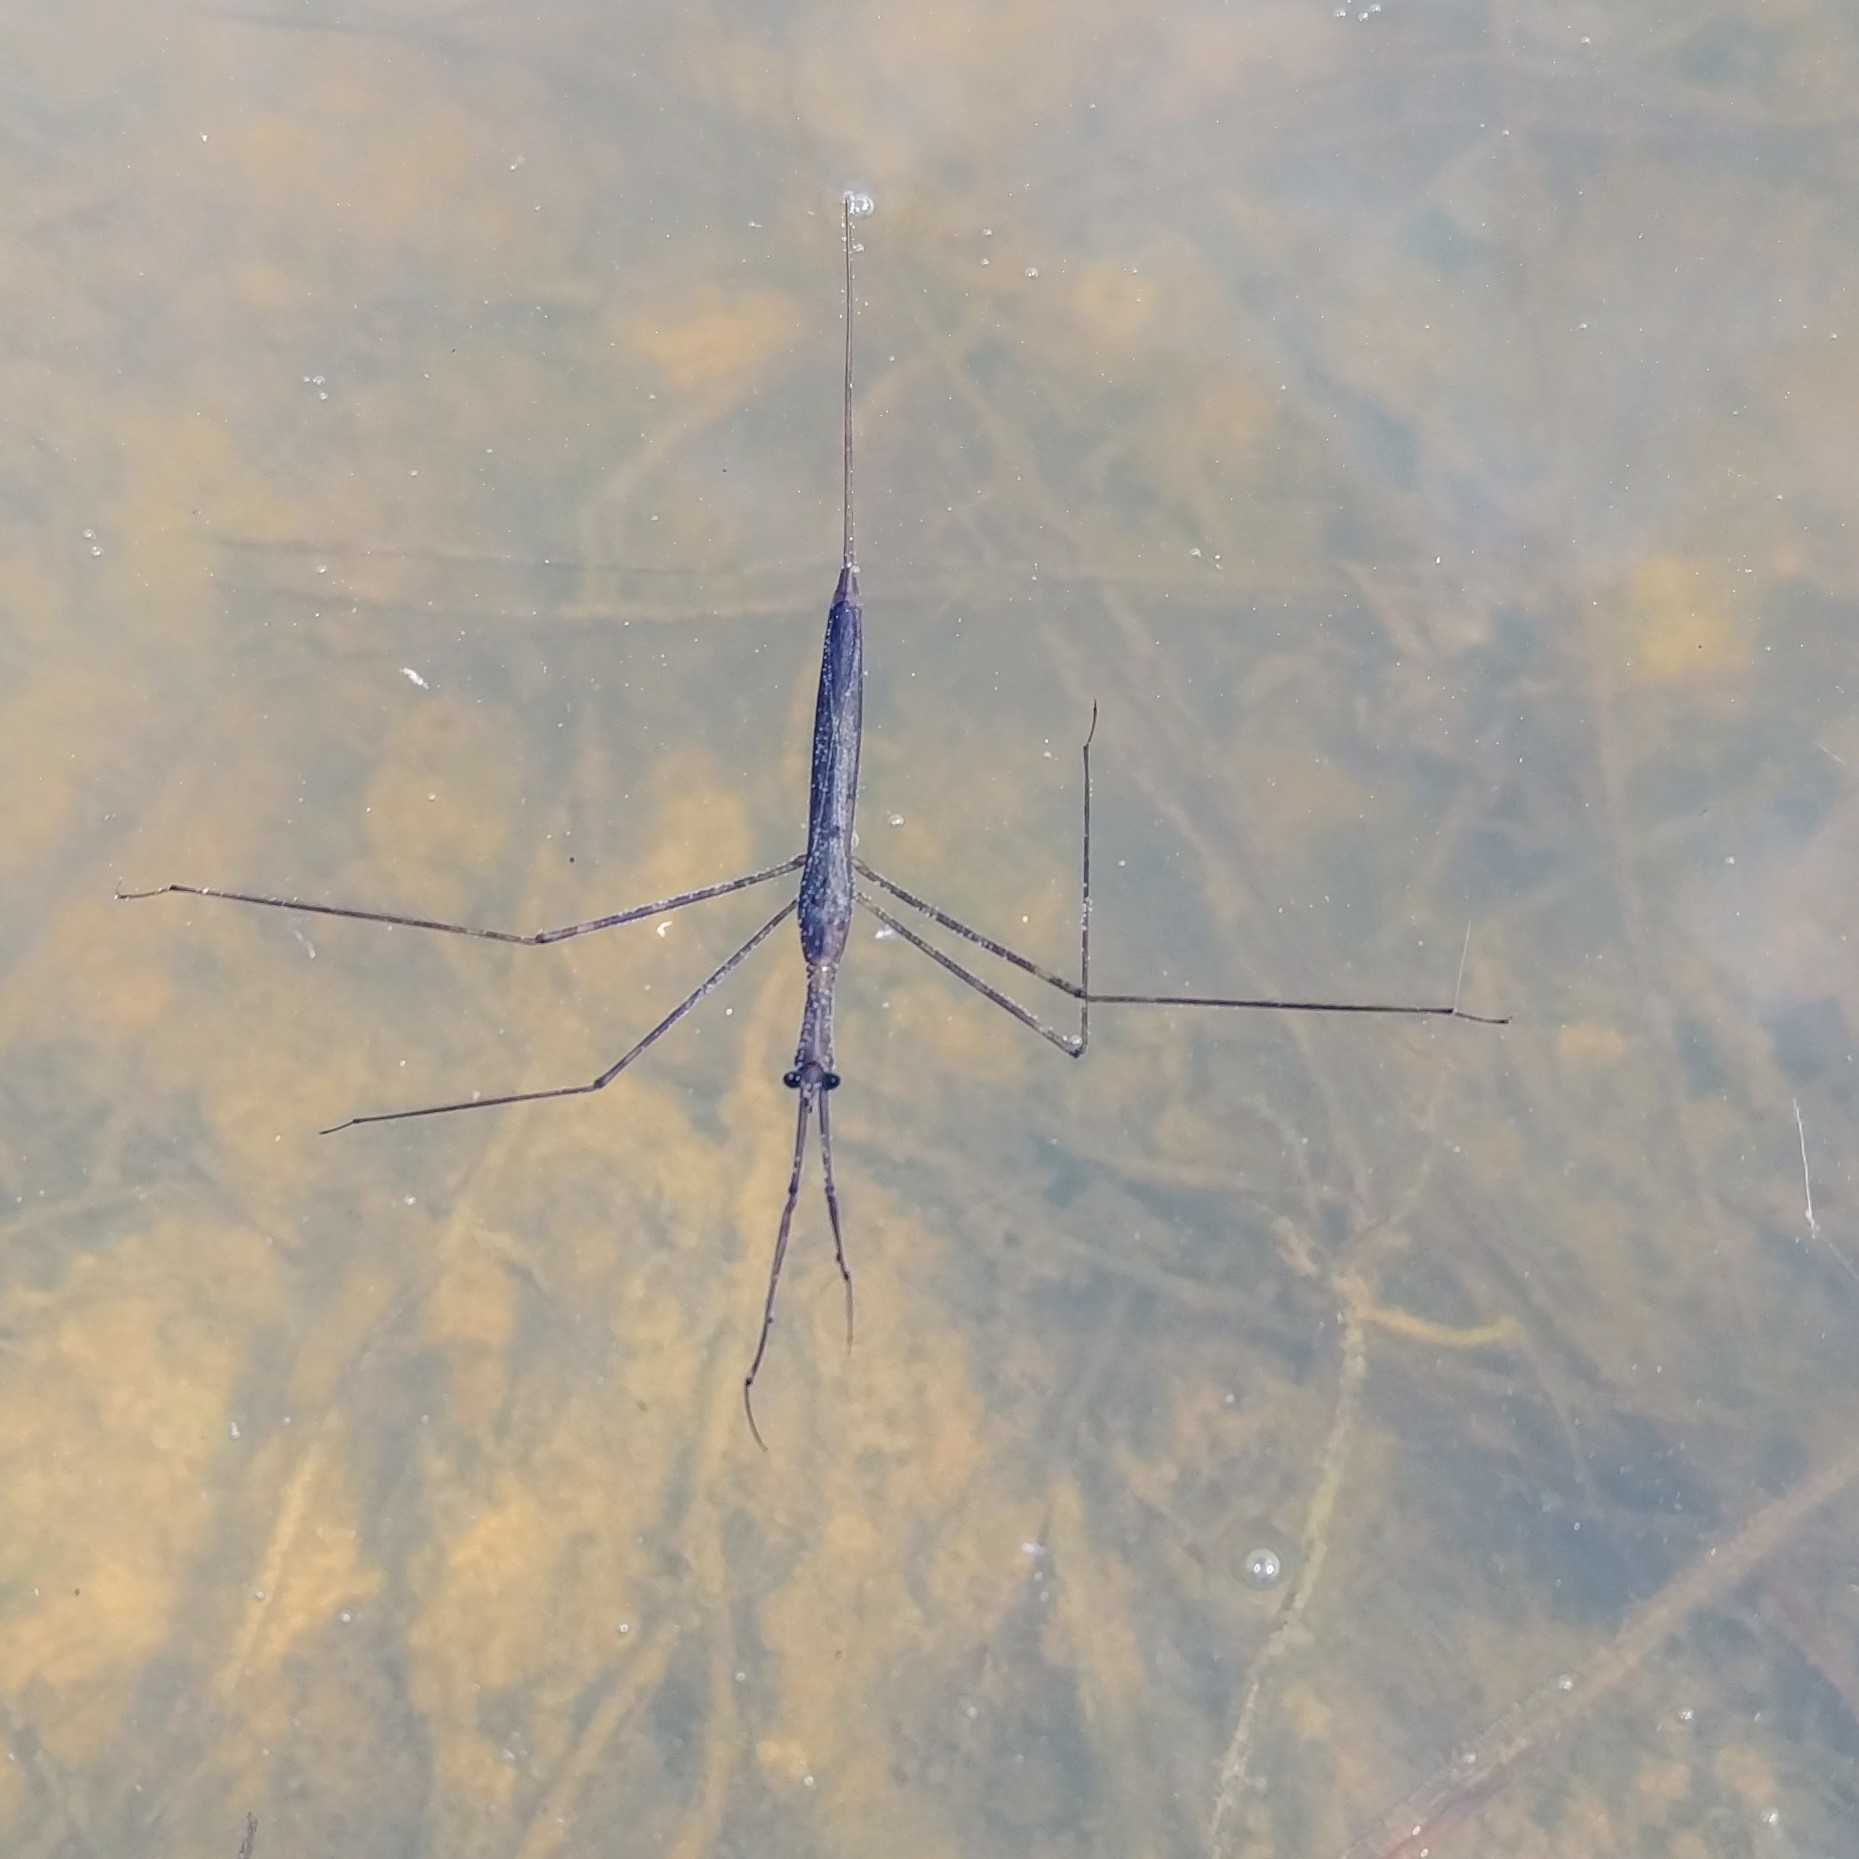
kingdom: Animalia
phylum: Arthropoda
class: Insecta
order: Hemiptera
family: Nepidae
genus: Ranatra
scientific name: Ranatra
